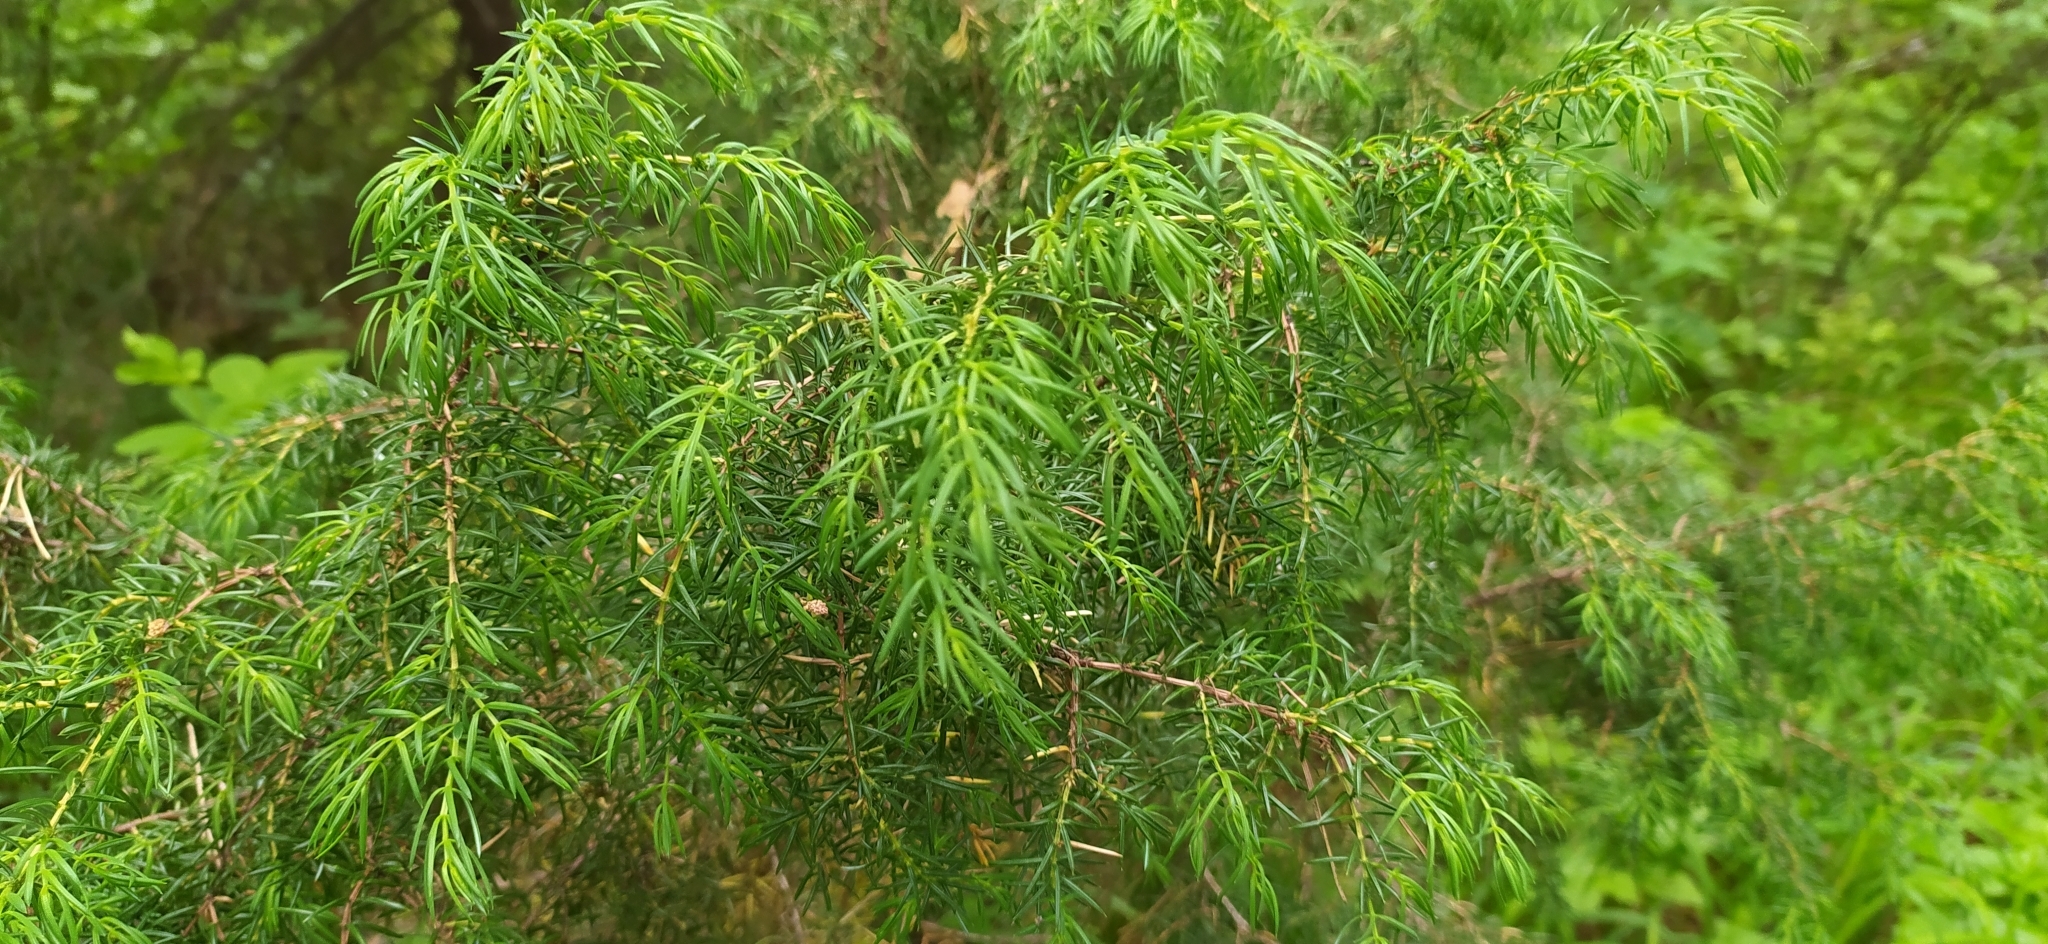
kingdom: Plantae
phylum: Tracheophyta
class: Pinopsida
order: Pinales
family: Cupressaceae
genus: Juniperus
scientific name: Juniperus communis
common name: Common juniper
